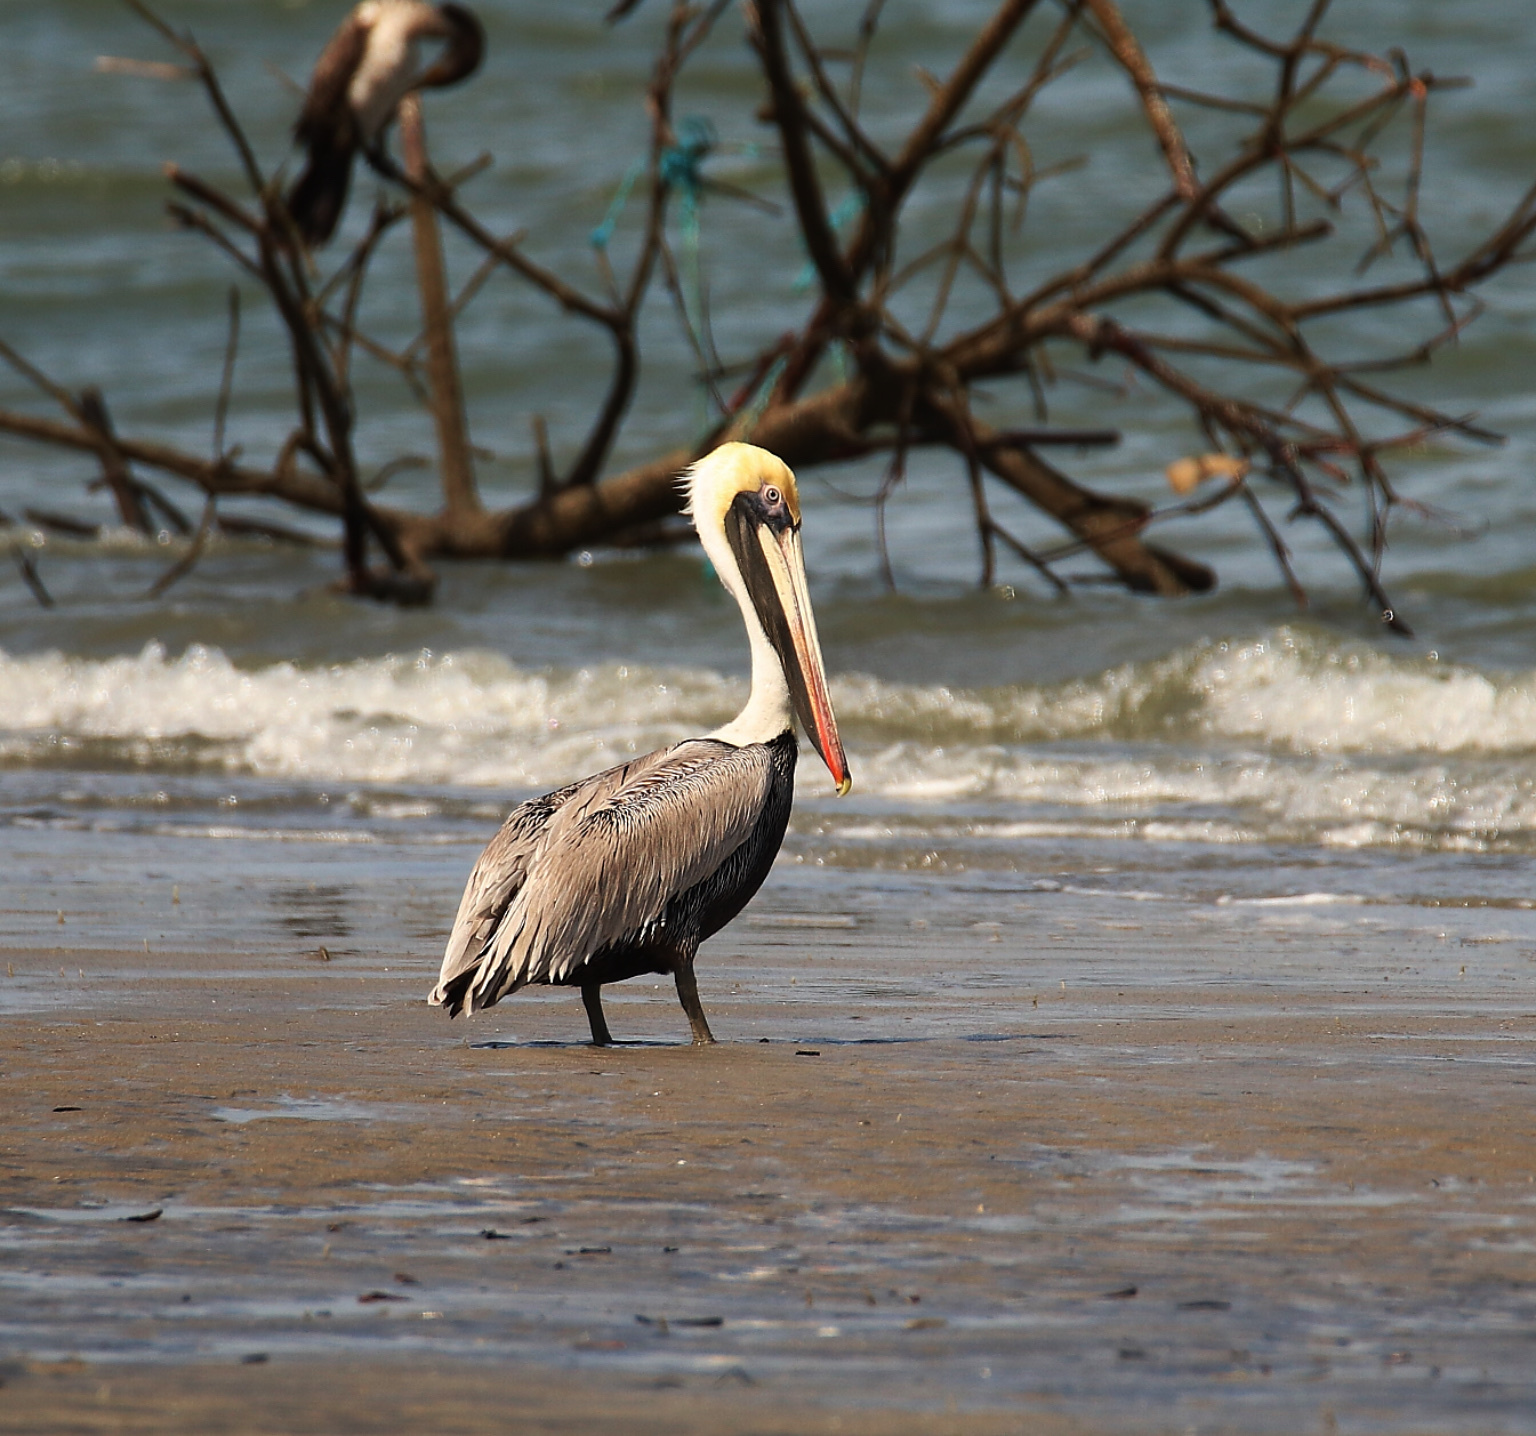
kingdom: Animalia
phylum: Chordata
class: Aves
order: Pelecaniformes
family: Pelecanidae
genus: Pelecanus
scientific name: Pelecanus occidentalis
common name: Brown pelican
